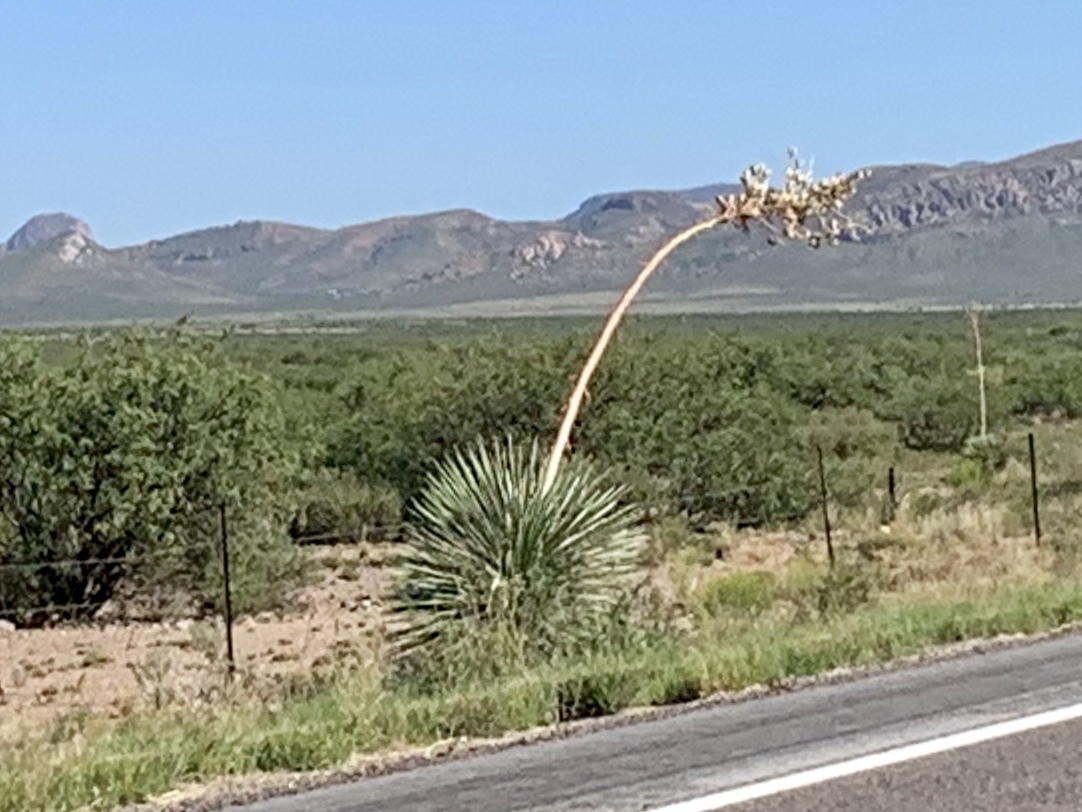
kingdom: Plantae
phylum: Tracheophyta
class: Liliopsida
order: Asparagales
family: Asparagaceae
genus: Yucca
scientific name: Yucca elata
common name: Palmella
